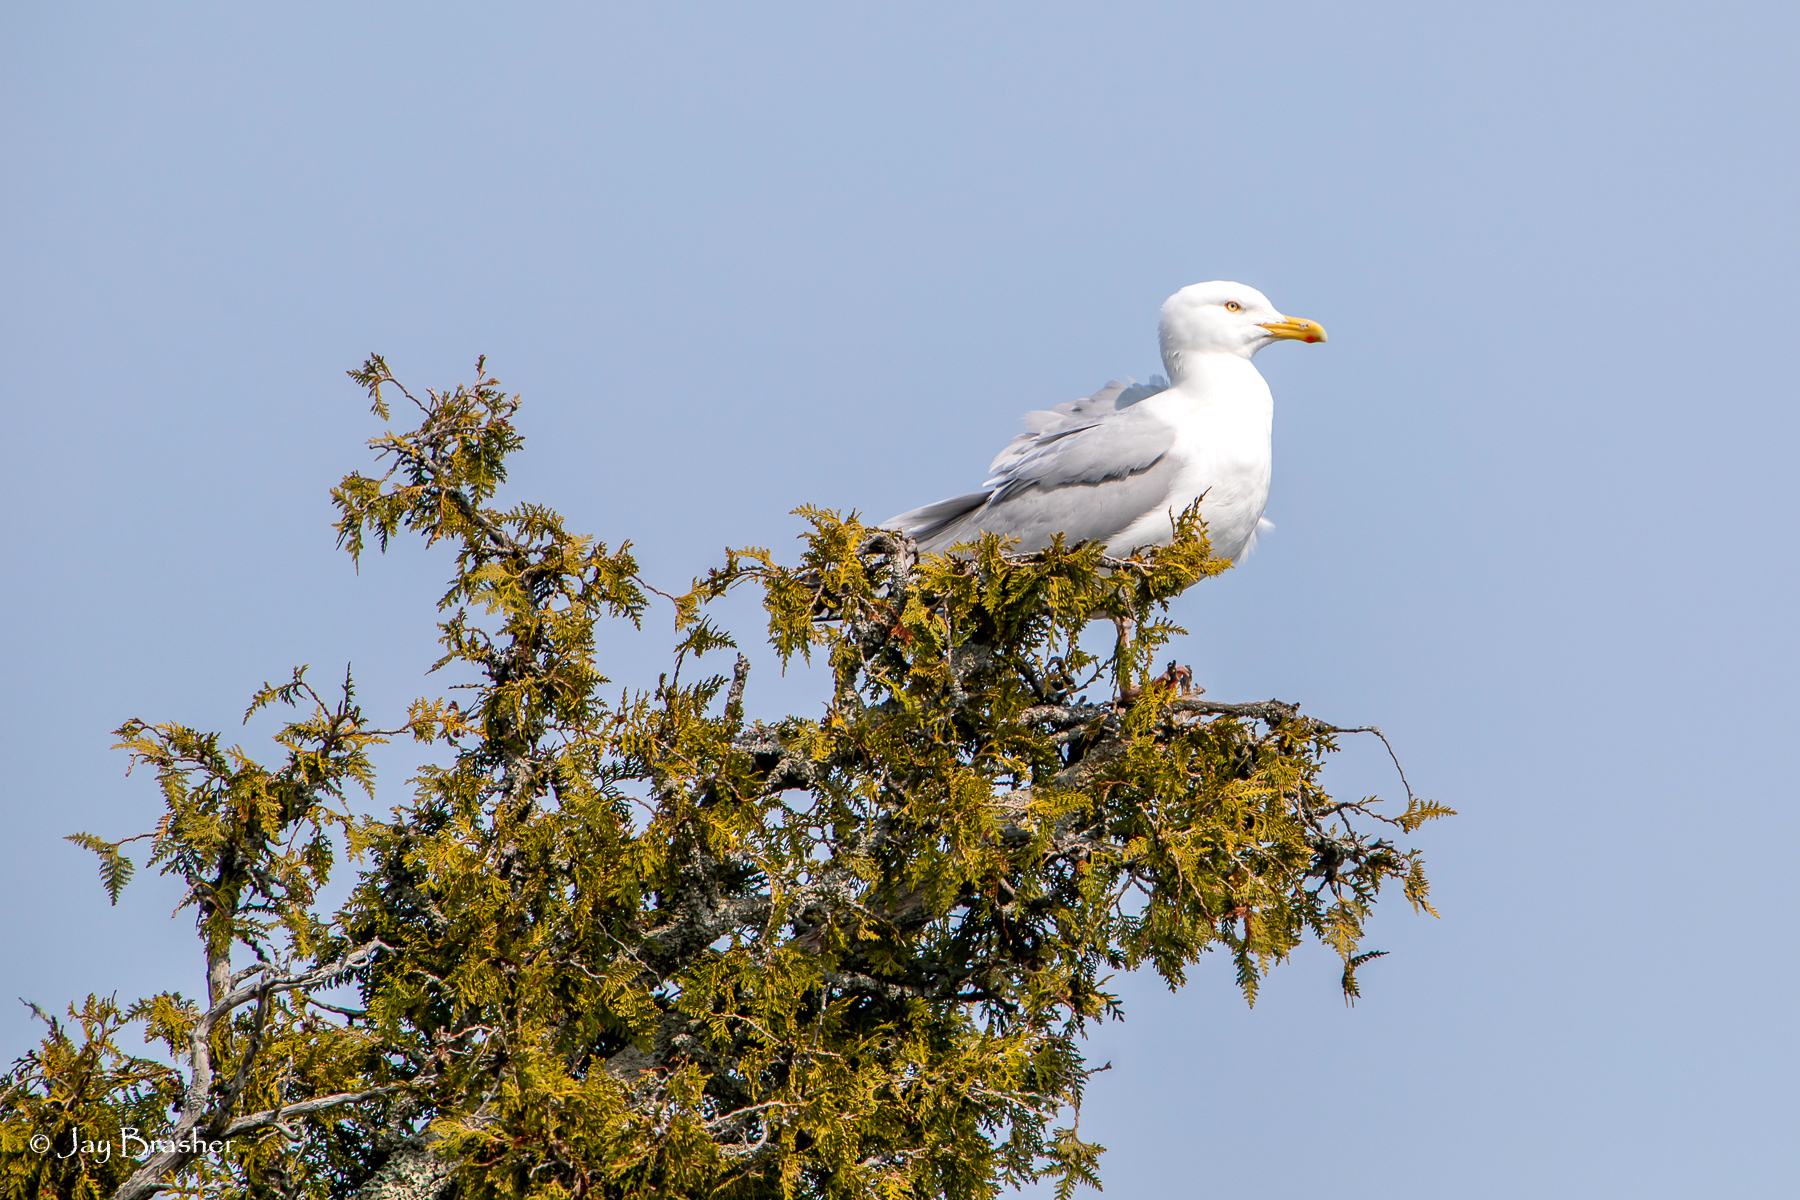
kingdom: Animalia
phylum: Chordata
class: Aves
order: Charadriiformes
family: Laridae
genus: Larus
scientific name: Larus argentatus
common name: Herring gull
